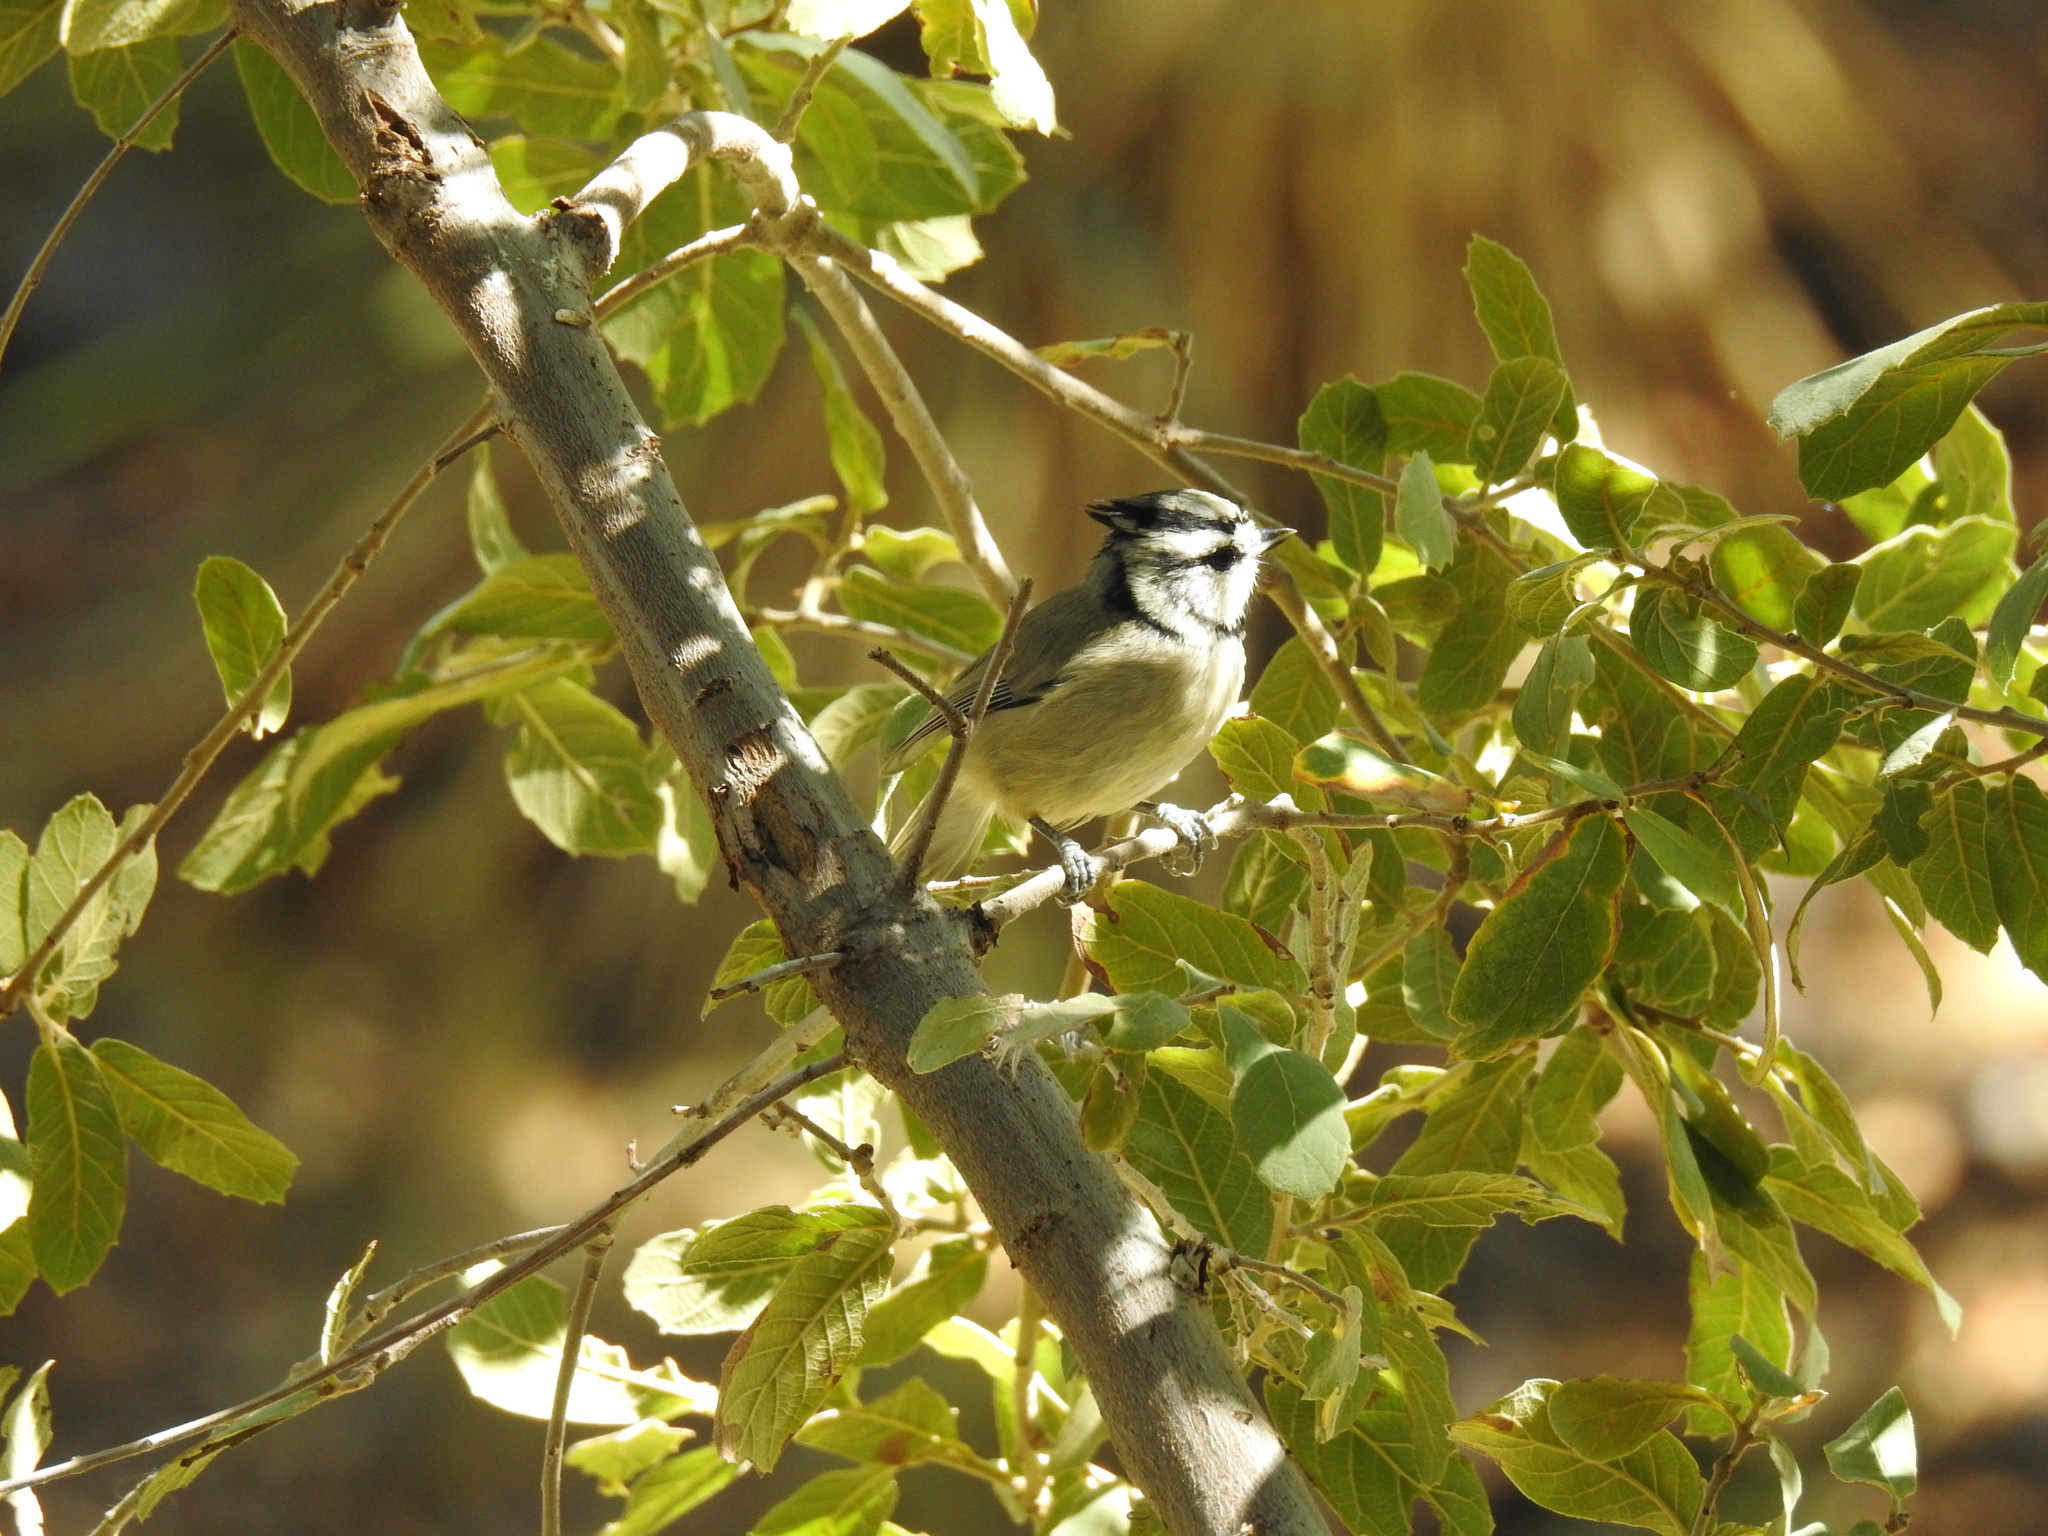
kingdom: Animalia
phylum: Chordata
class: Aves
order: Passeriformes
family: Paridae
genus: Baeolophus
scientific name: Baeolophus wollweberi
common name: Bridled titmouse
